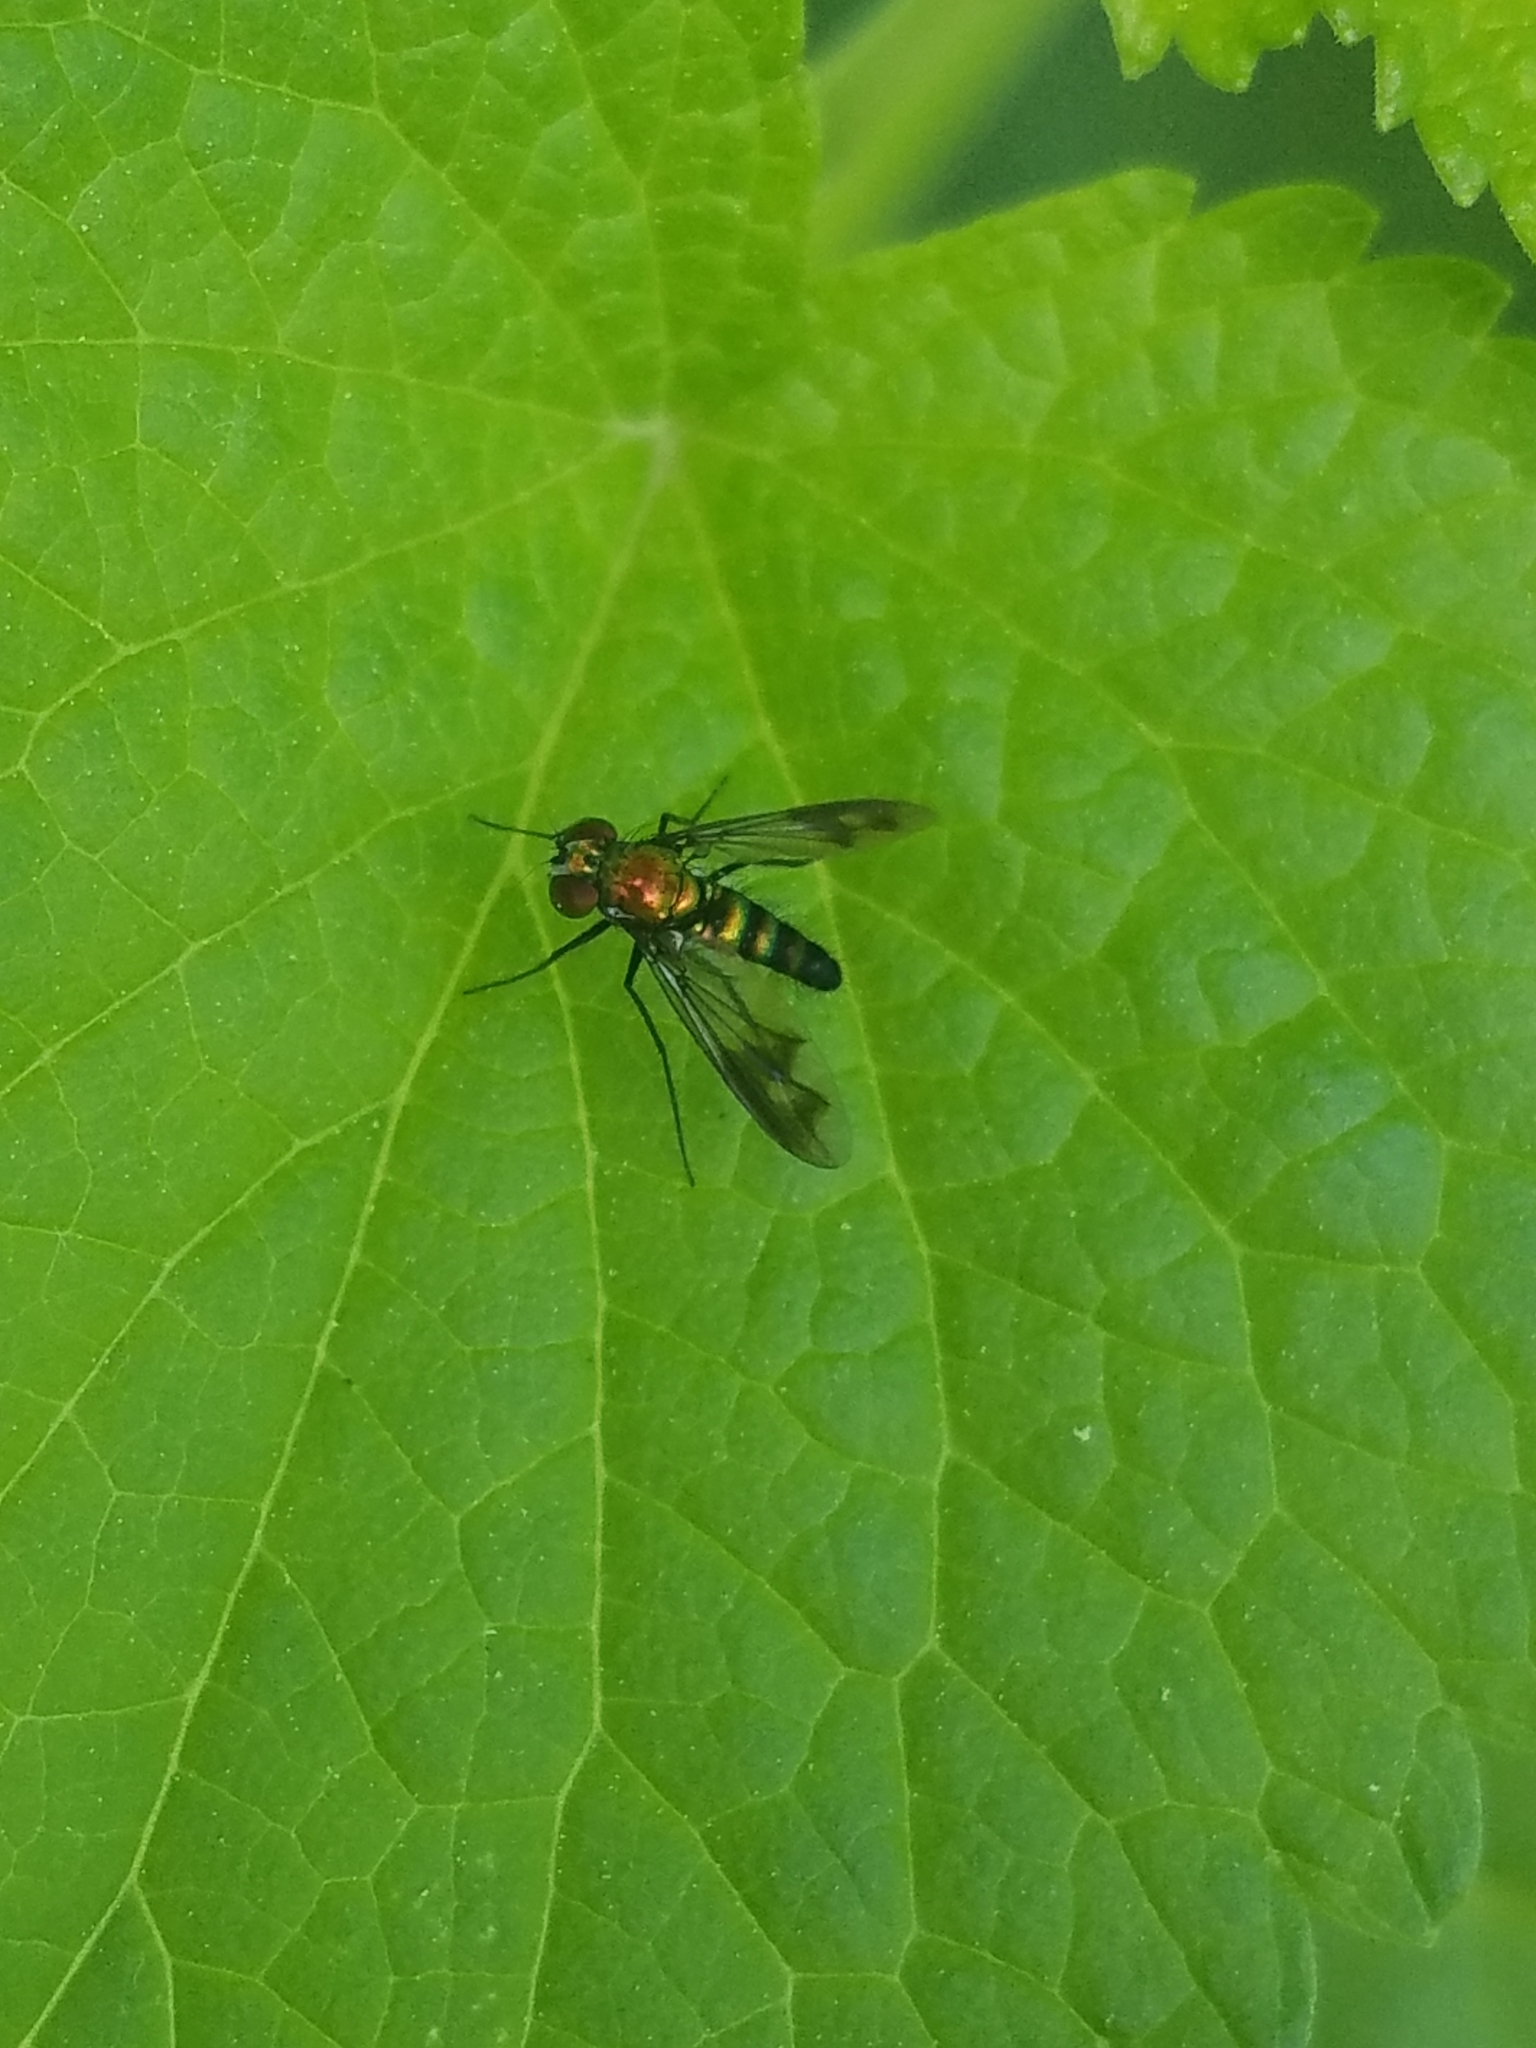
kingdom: Animalia
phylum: Arthropoda
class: Insecta
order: Diptera
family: Dolichopodidae
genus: Condylostylus
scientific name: Condylostylus patibulatus
